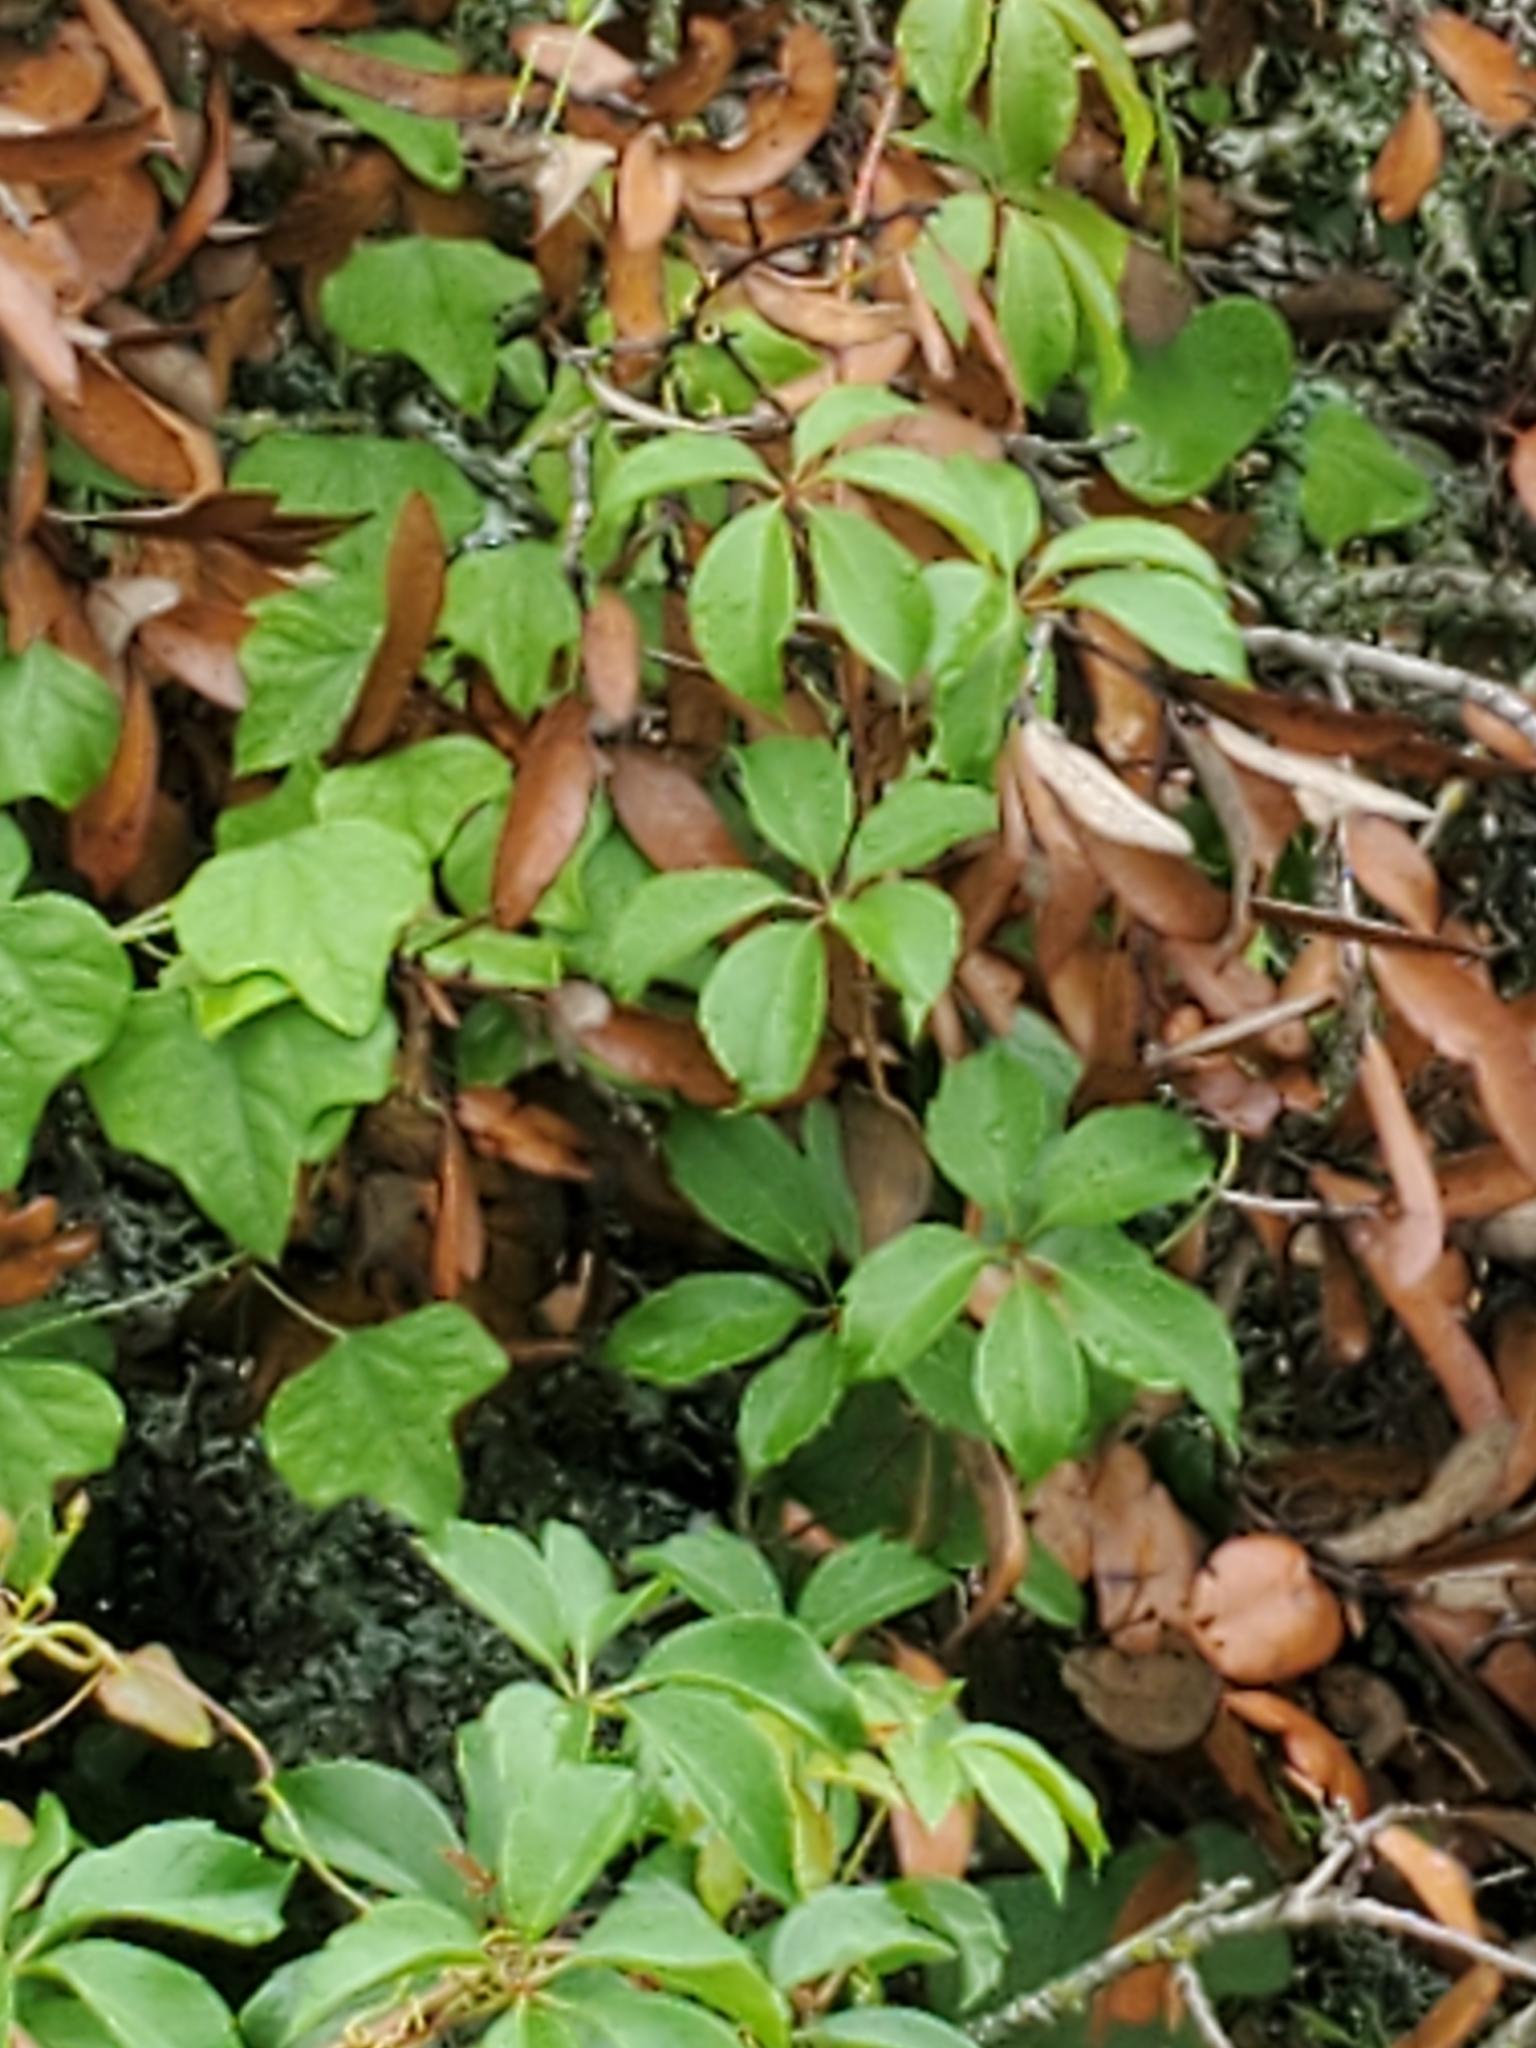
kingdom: Plantae
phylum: Tracheophyta
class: Magnoliopsida
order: Vitales
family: Vitaceae
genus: Parthenocissus
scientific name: Parthenocissus quinquefolia
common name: Virginia-creeper
